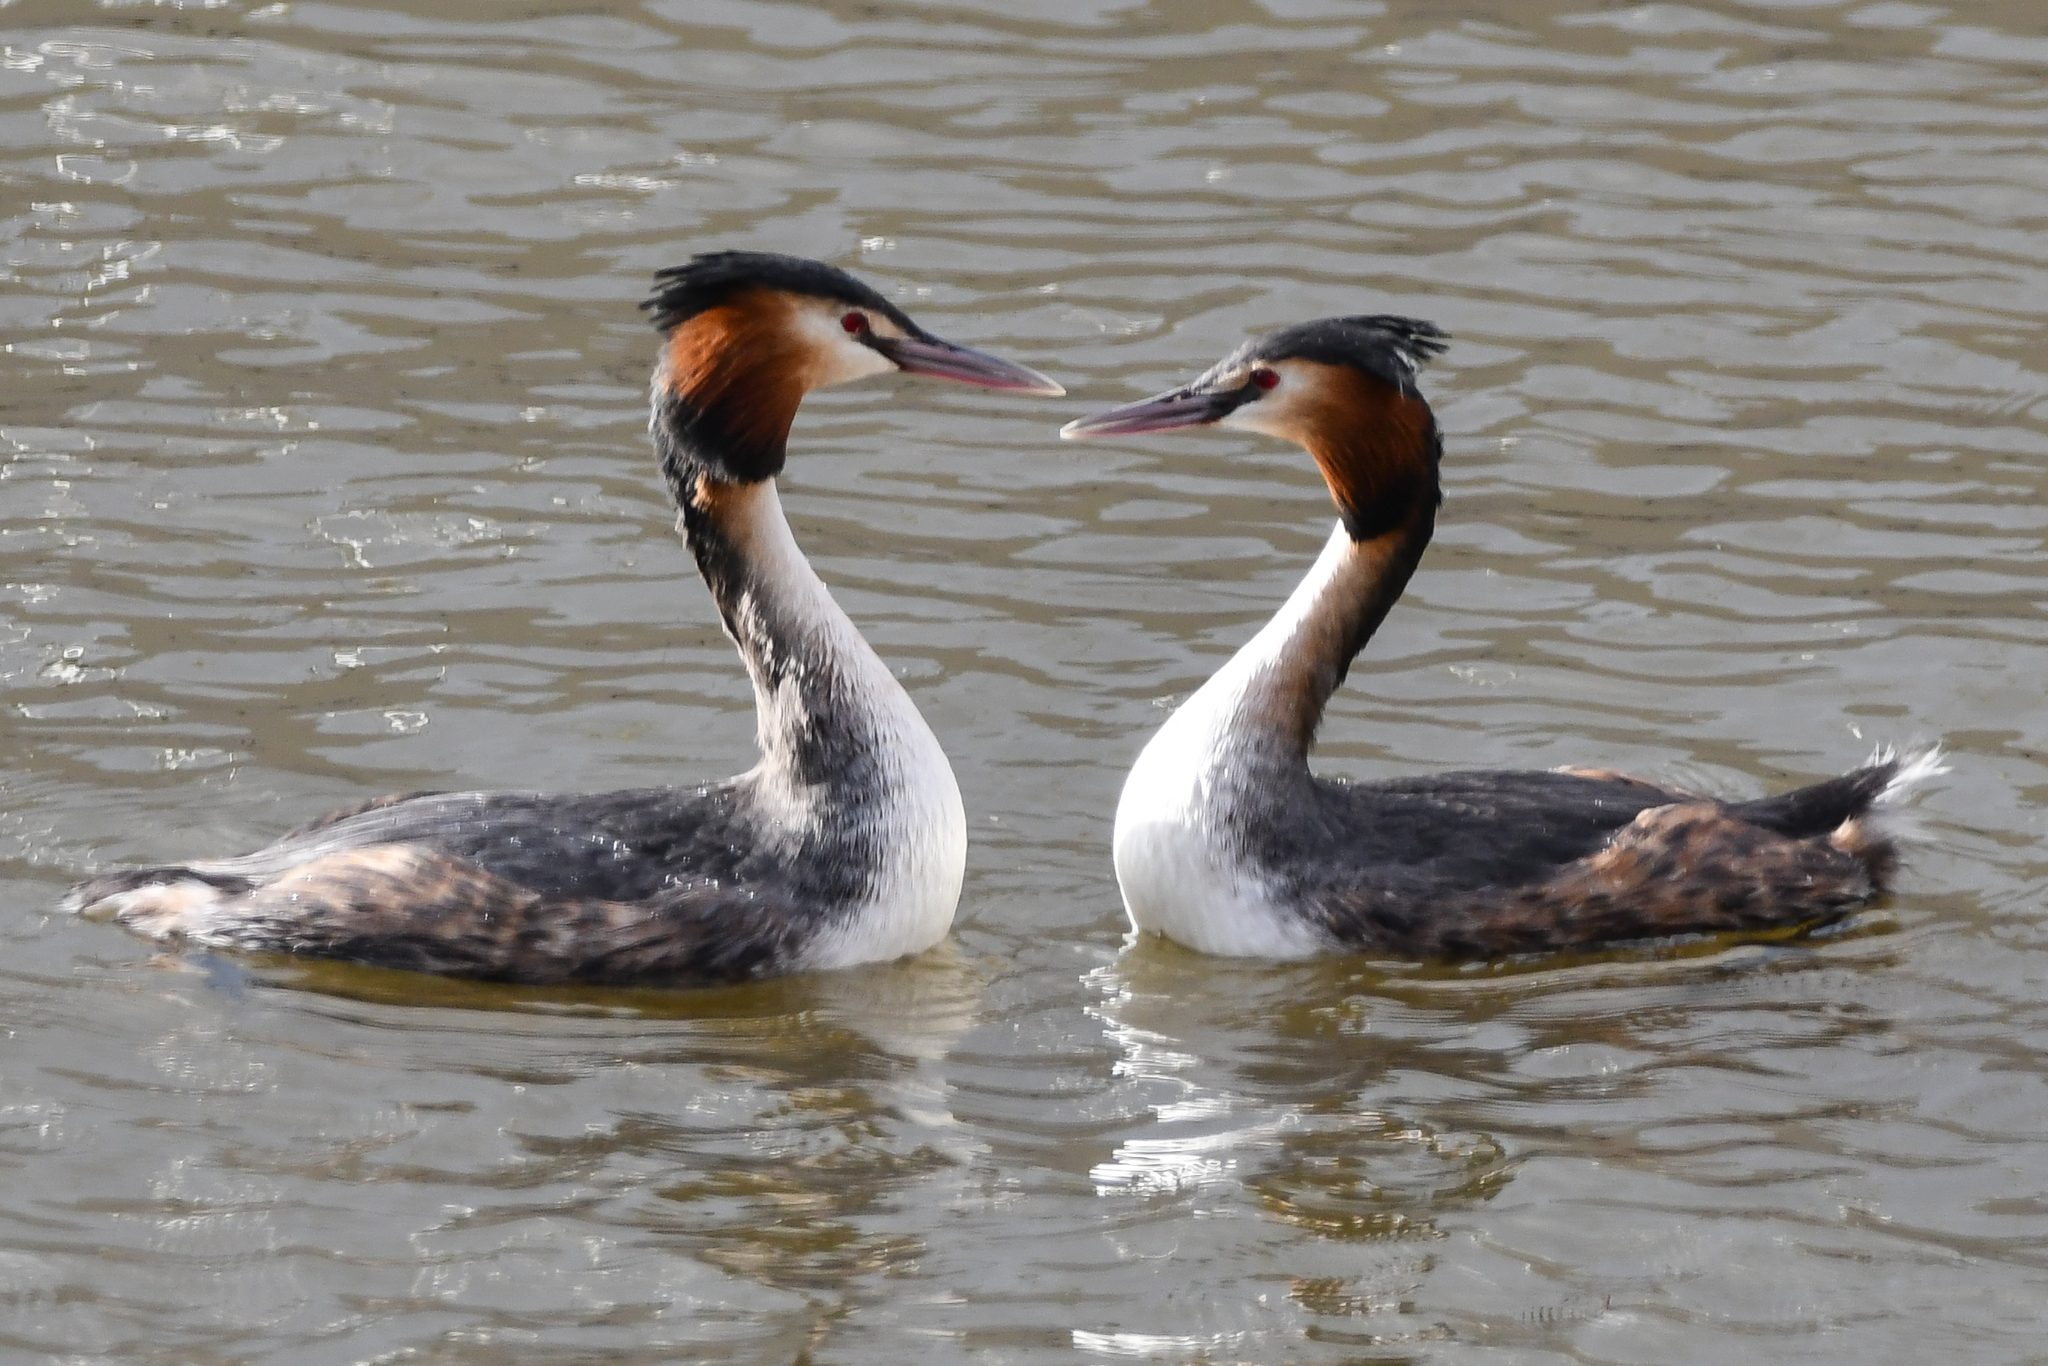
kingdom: Animalia
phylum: Chordata
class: Aves
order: Podicipediformes
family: Podicipedidae
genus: Podiceps
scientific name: Podiceps cristatus
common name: Great crested grebe
